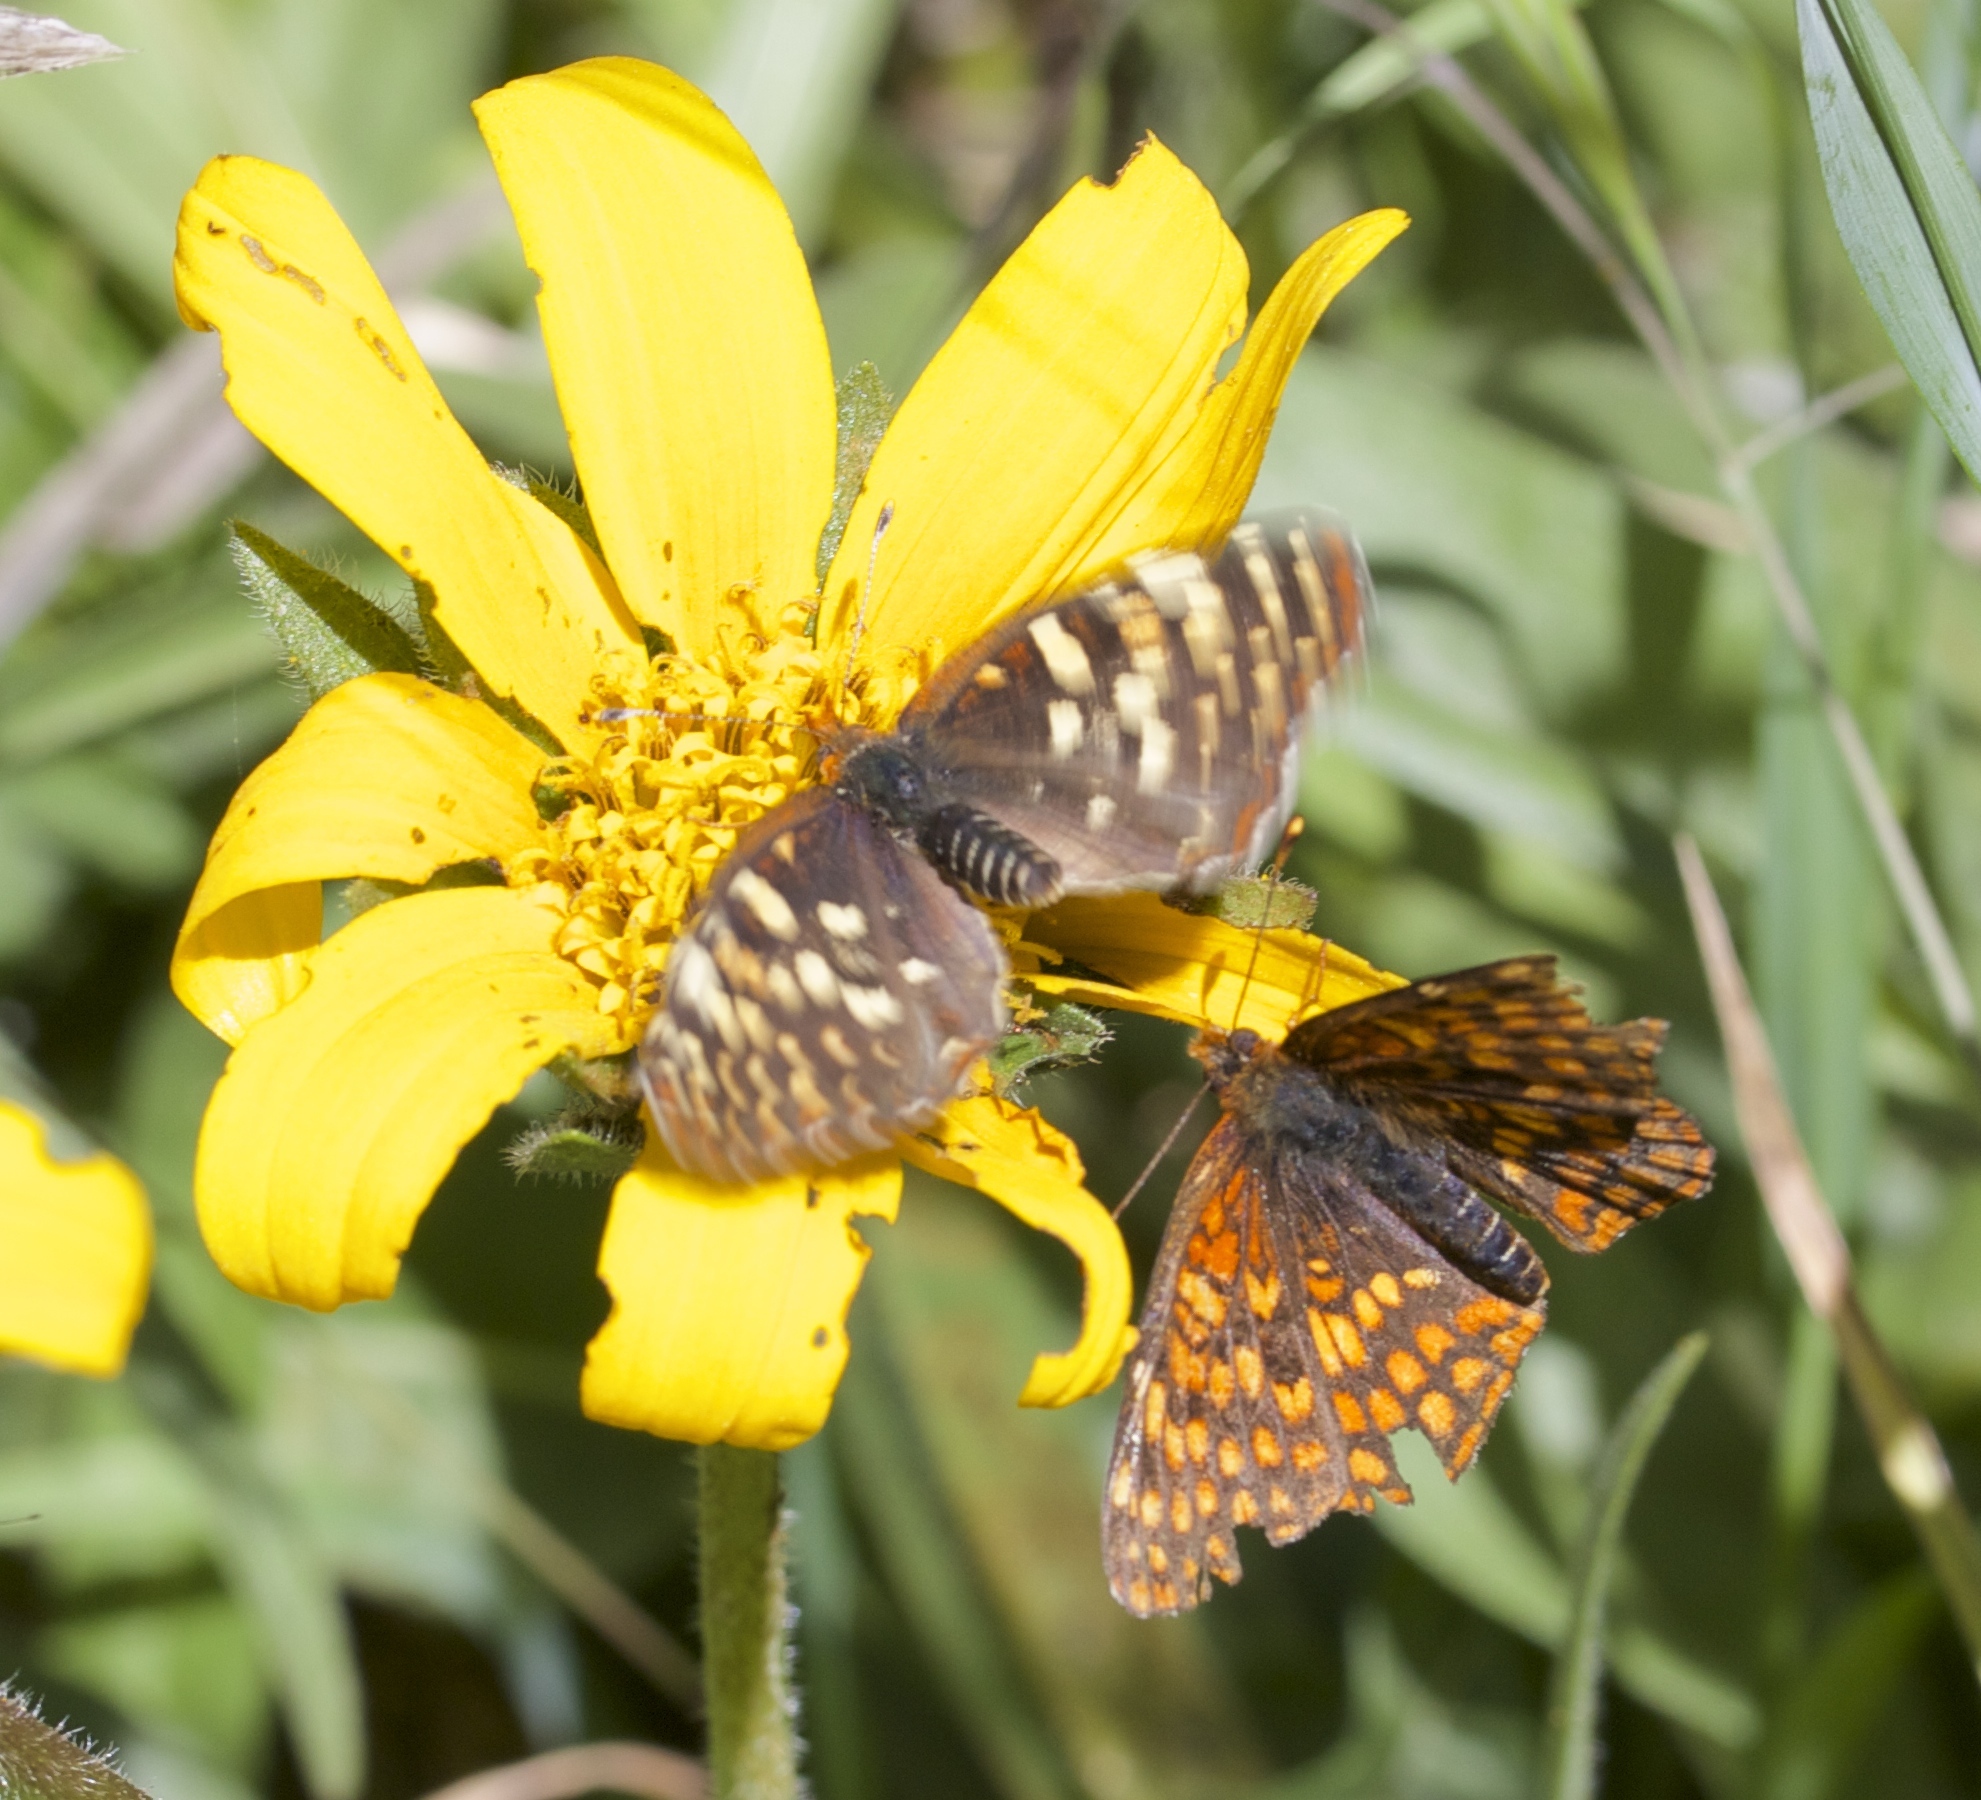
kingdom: Animalia
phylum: Arthropoda
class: Insecta
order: Lepidoptera
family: Nymphalidae
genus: Chlosyne
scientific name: Chlosyne palla
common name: Northern checkerspot
